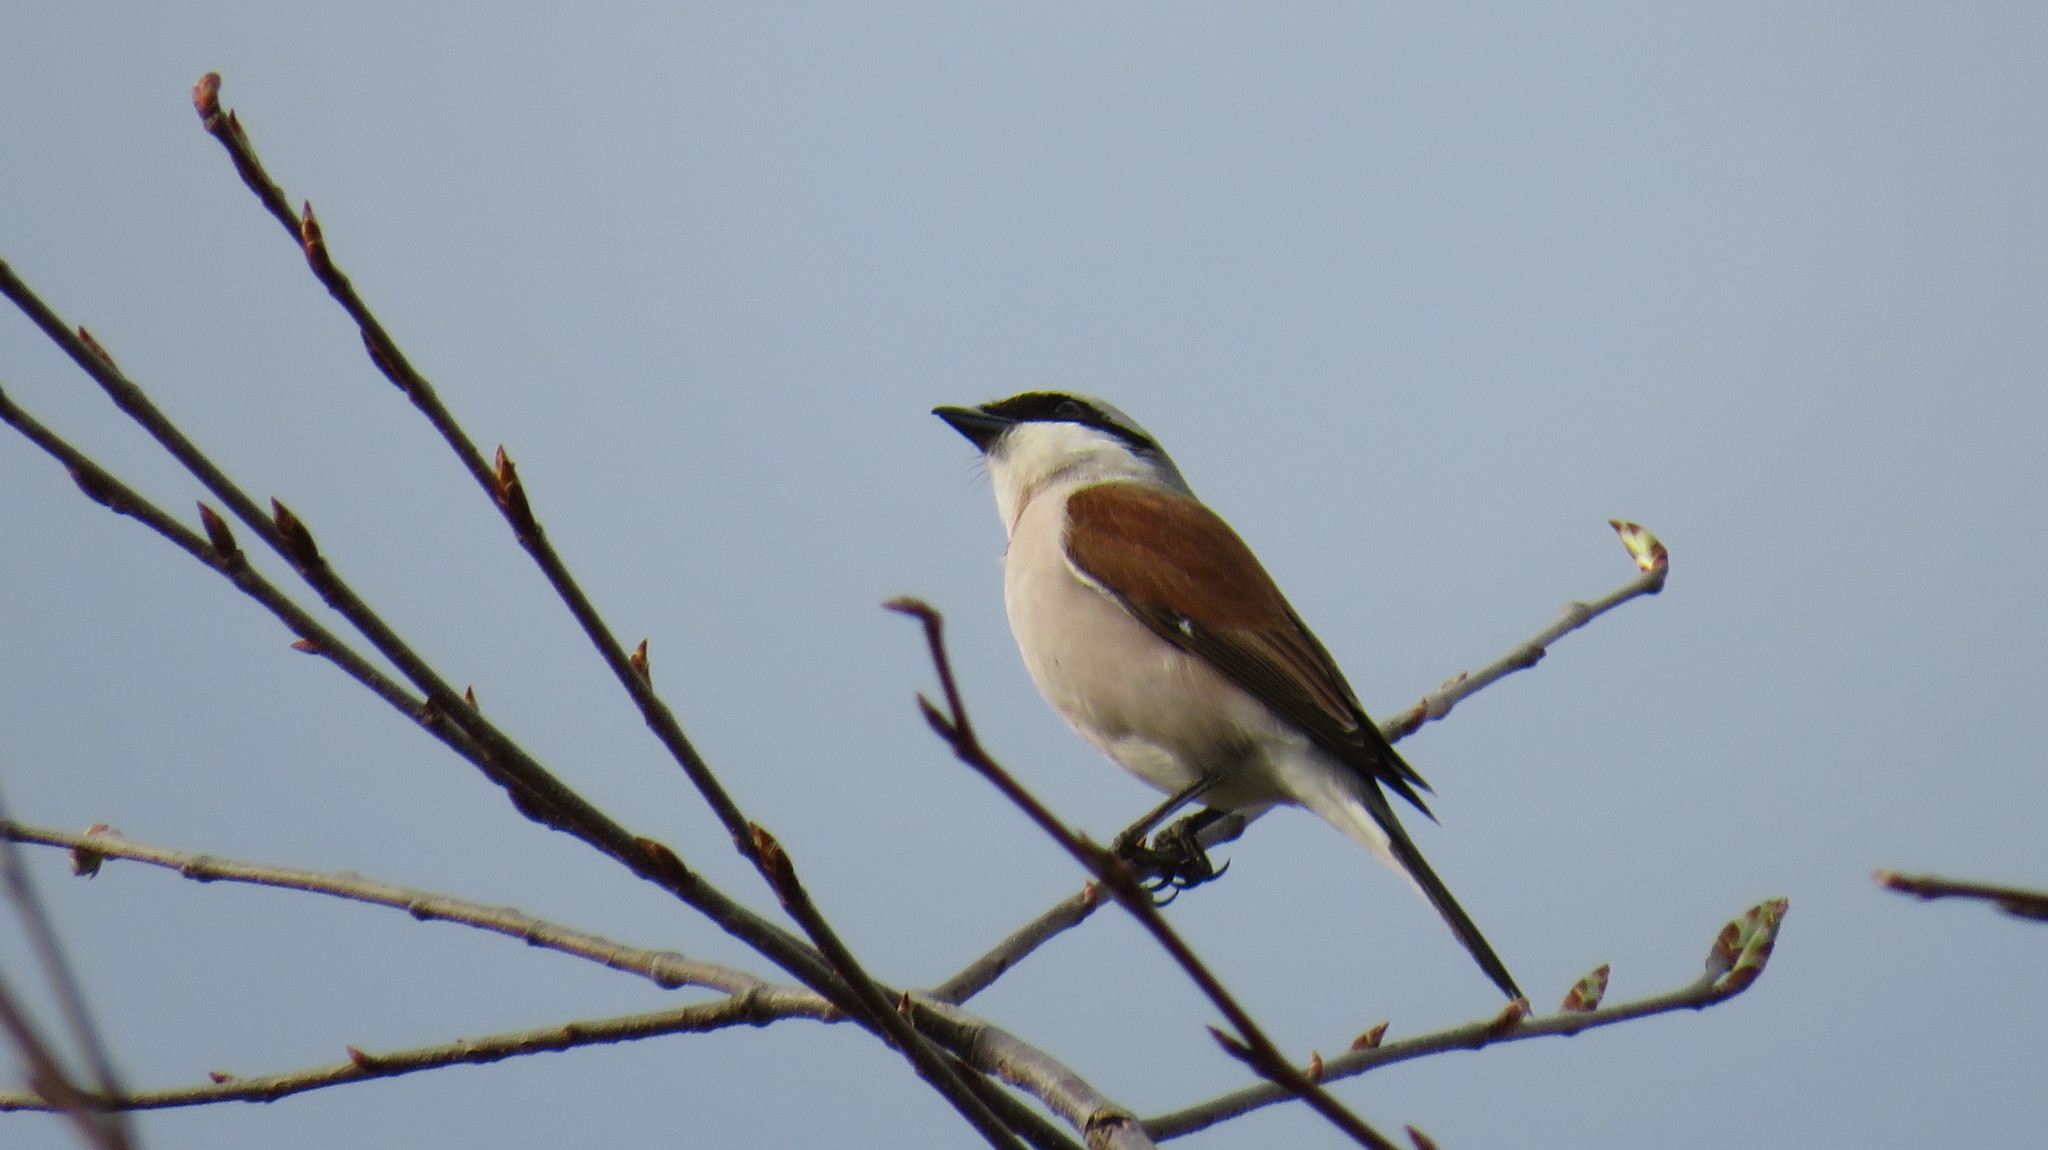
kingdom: Animalia
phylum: Chordata
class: Aves
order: Passeriformes
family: Laniidae
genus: Lanius
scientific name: Lanius collurio
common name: Red-backed shrike
